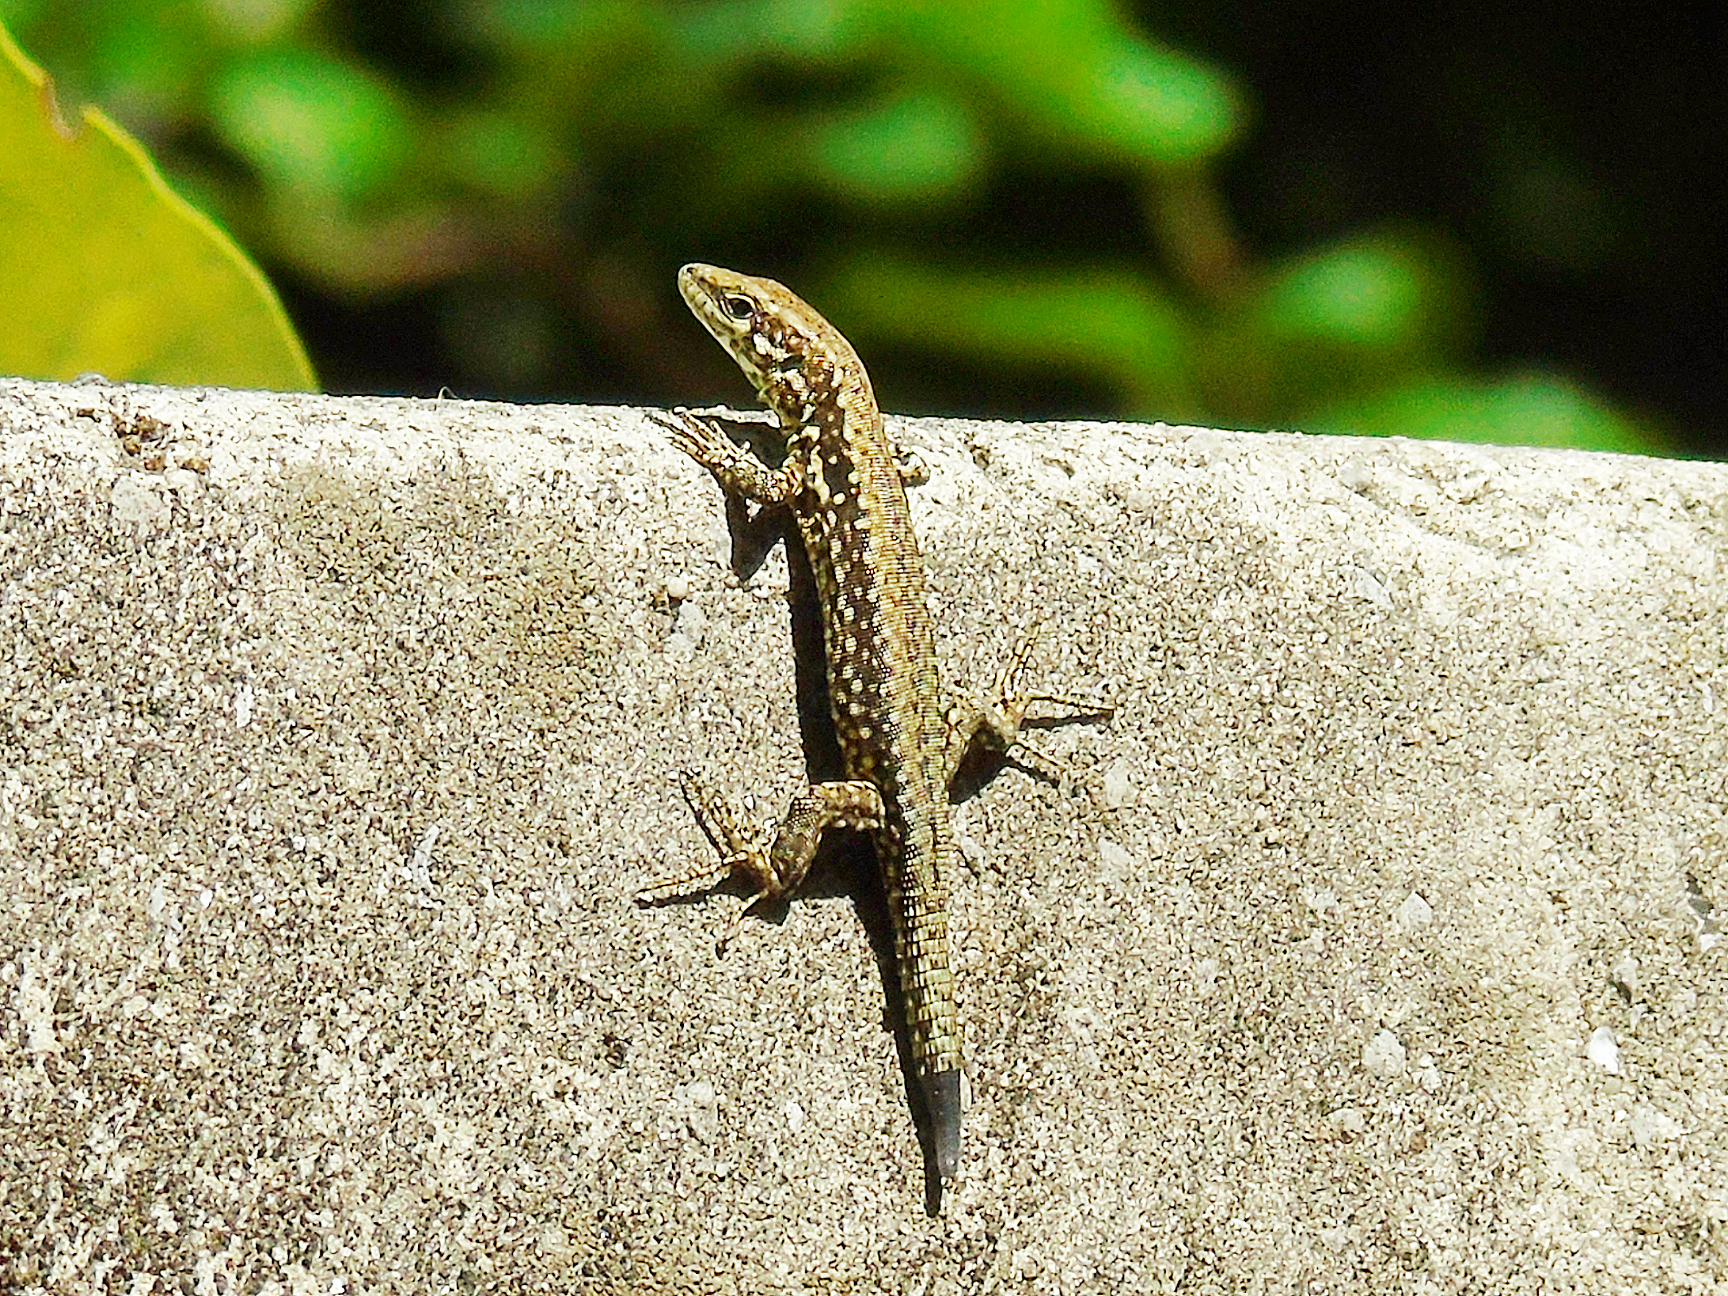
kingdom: Animalia
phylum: Chordata
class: Squamata
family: Lacertidae
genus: Podarcis
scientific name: Podarcis muralis
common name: Common wall lizard
